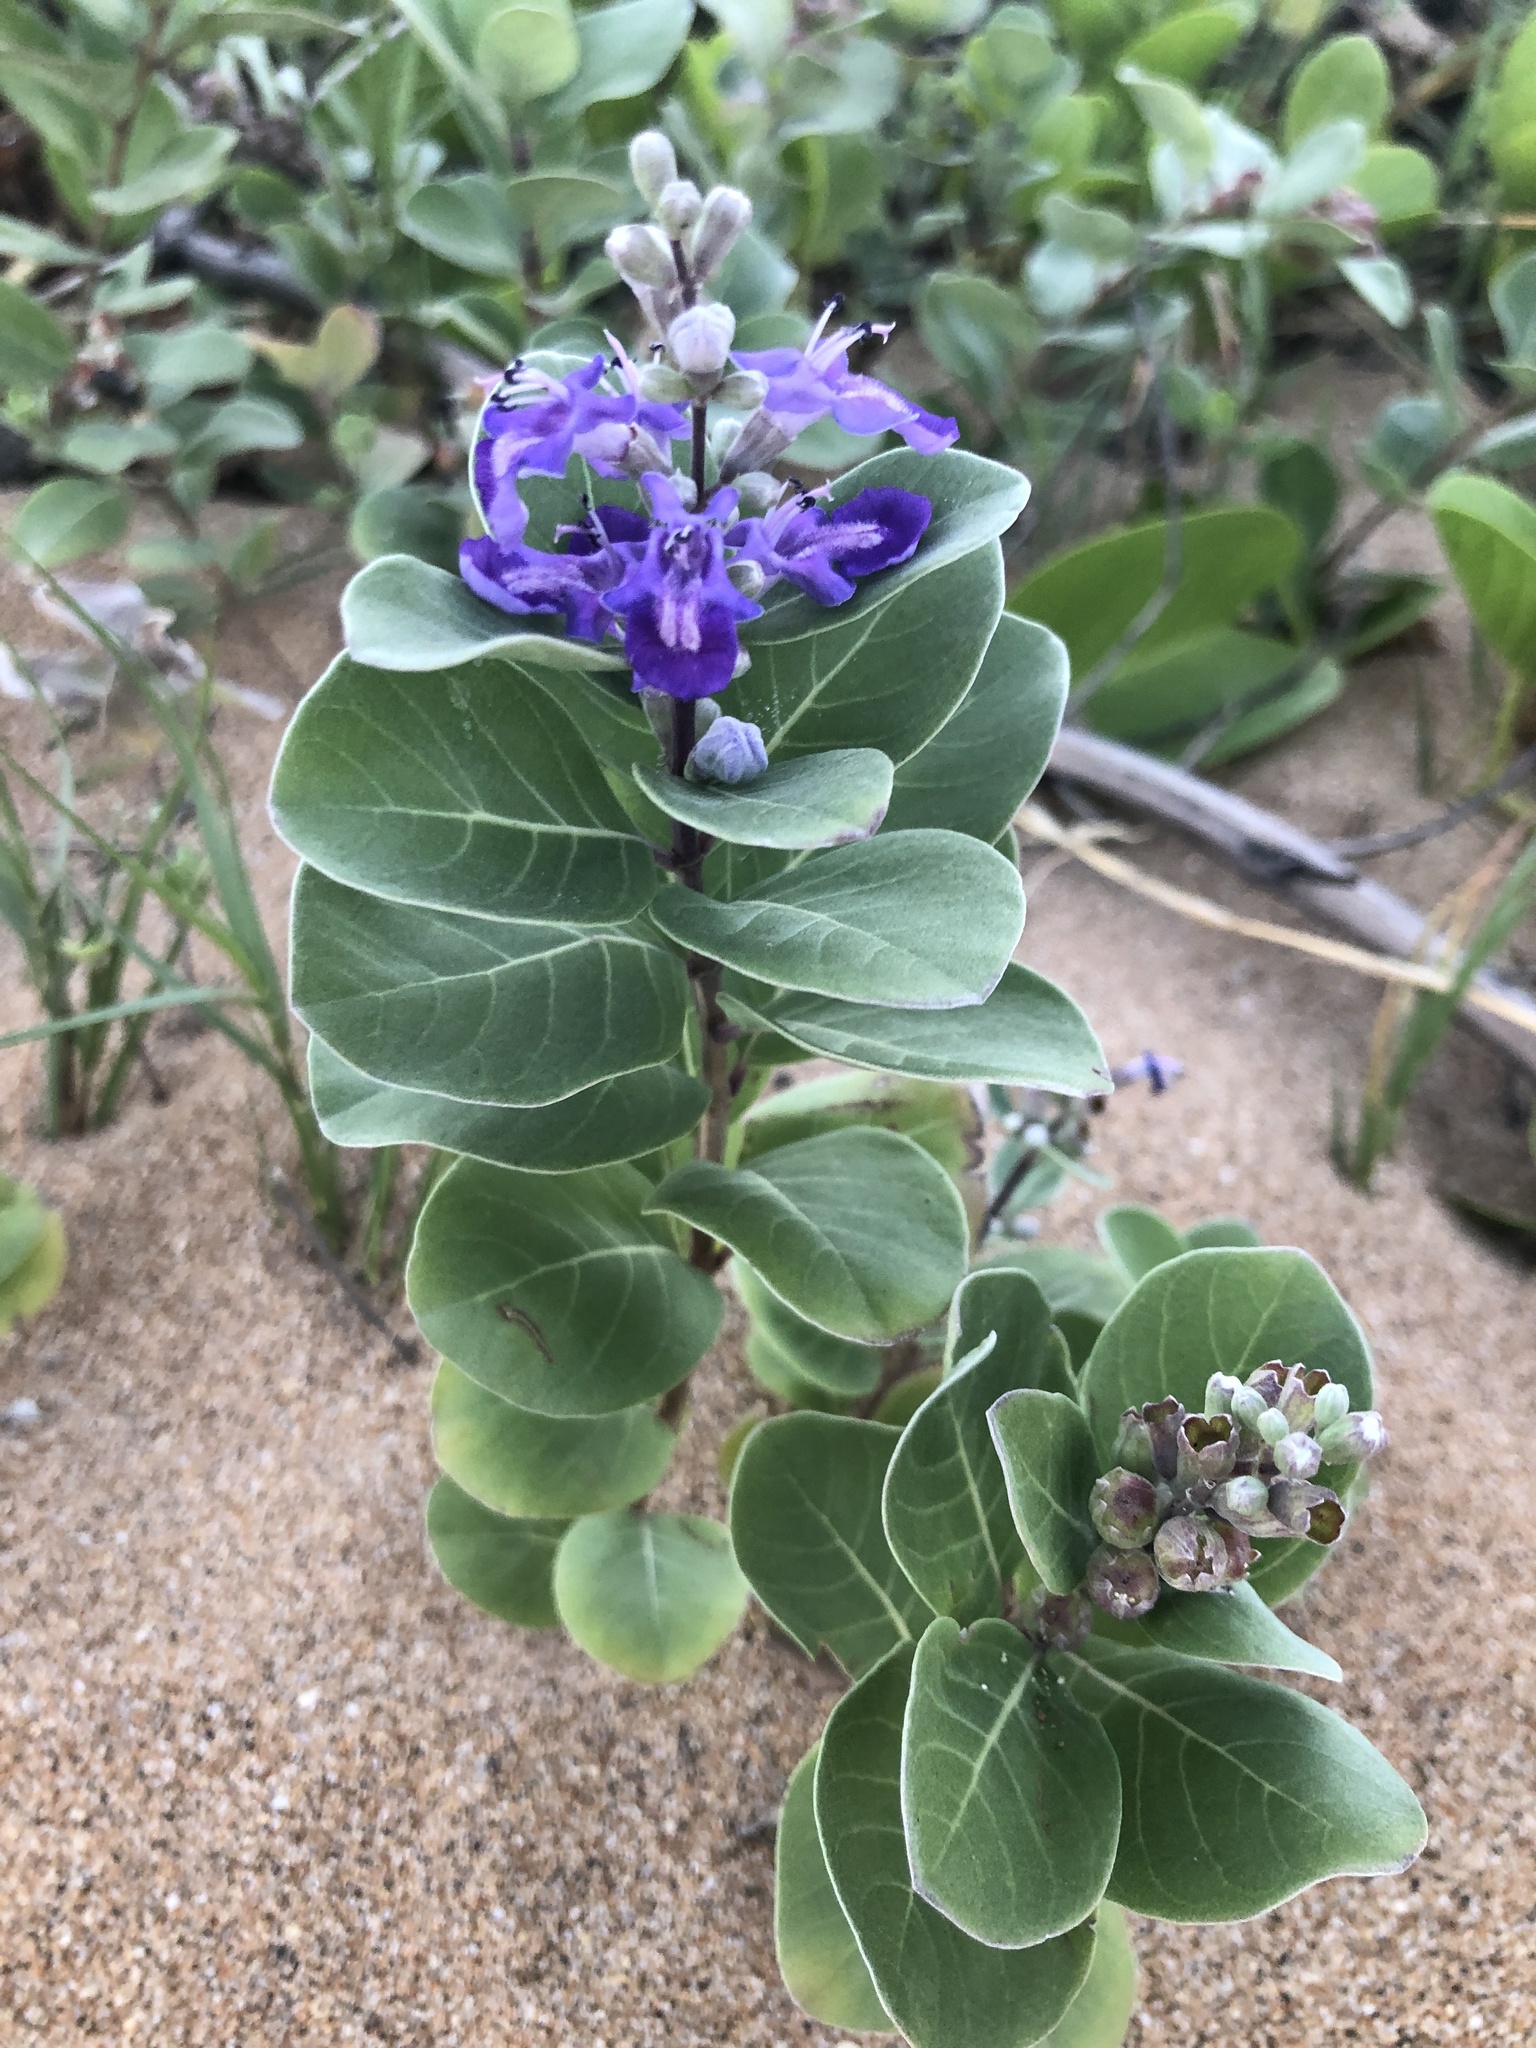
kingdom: Plantae
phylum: Tracheophyta
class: Magnoliopsida
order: Lamiales
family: Lamiaceae
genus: Vitex
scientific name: Vitex rotundifolia
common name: Beach vitex
